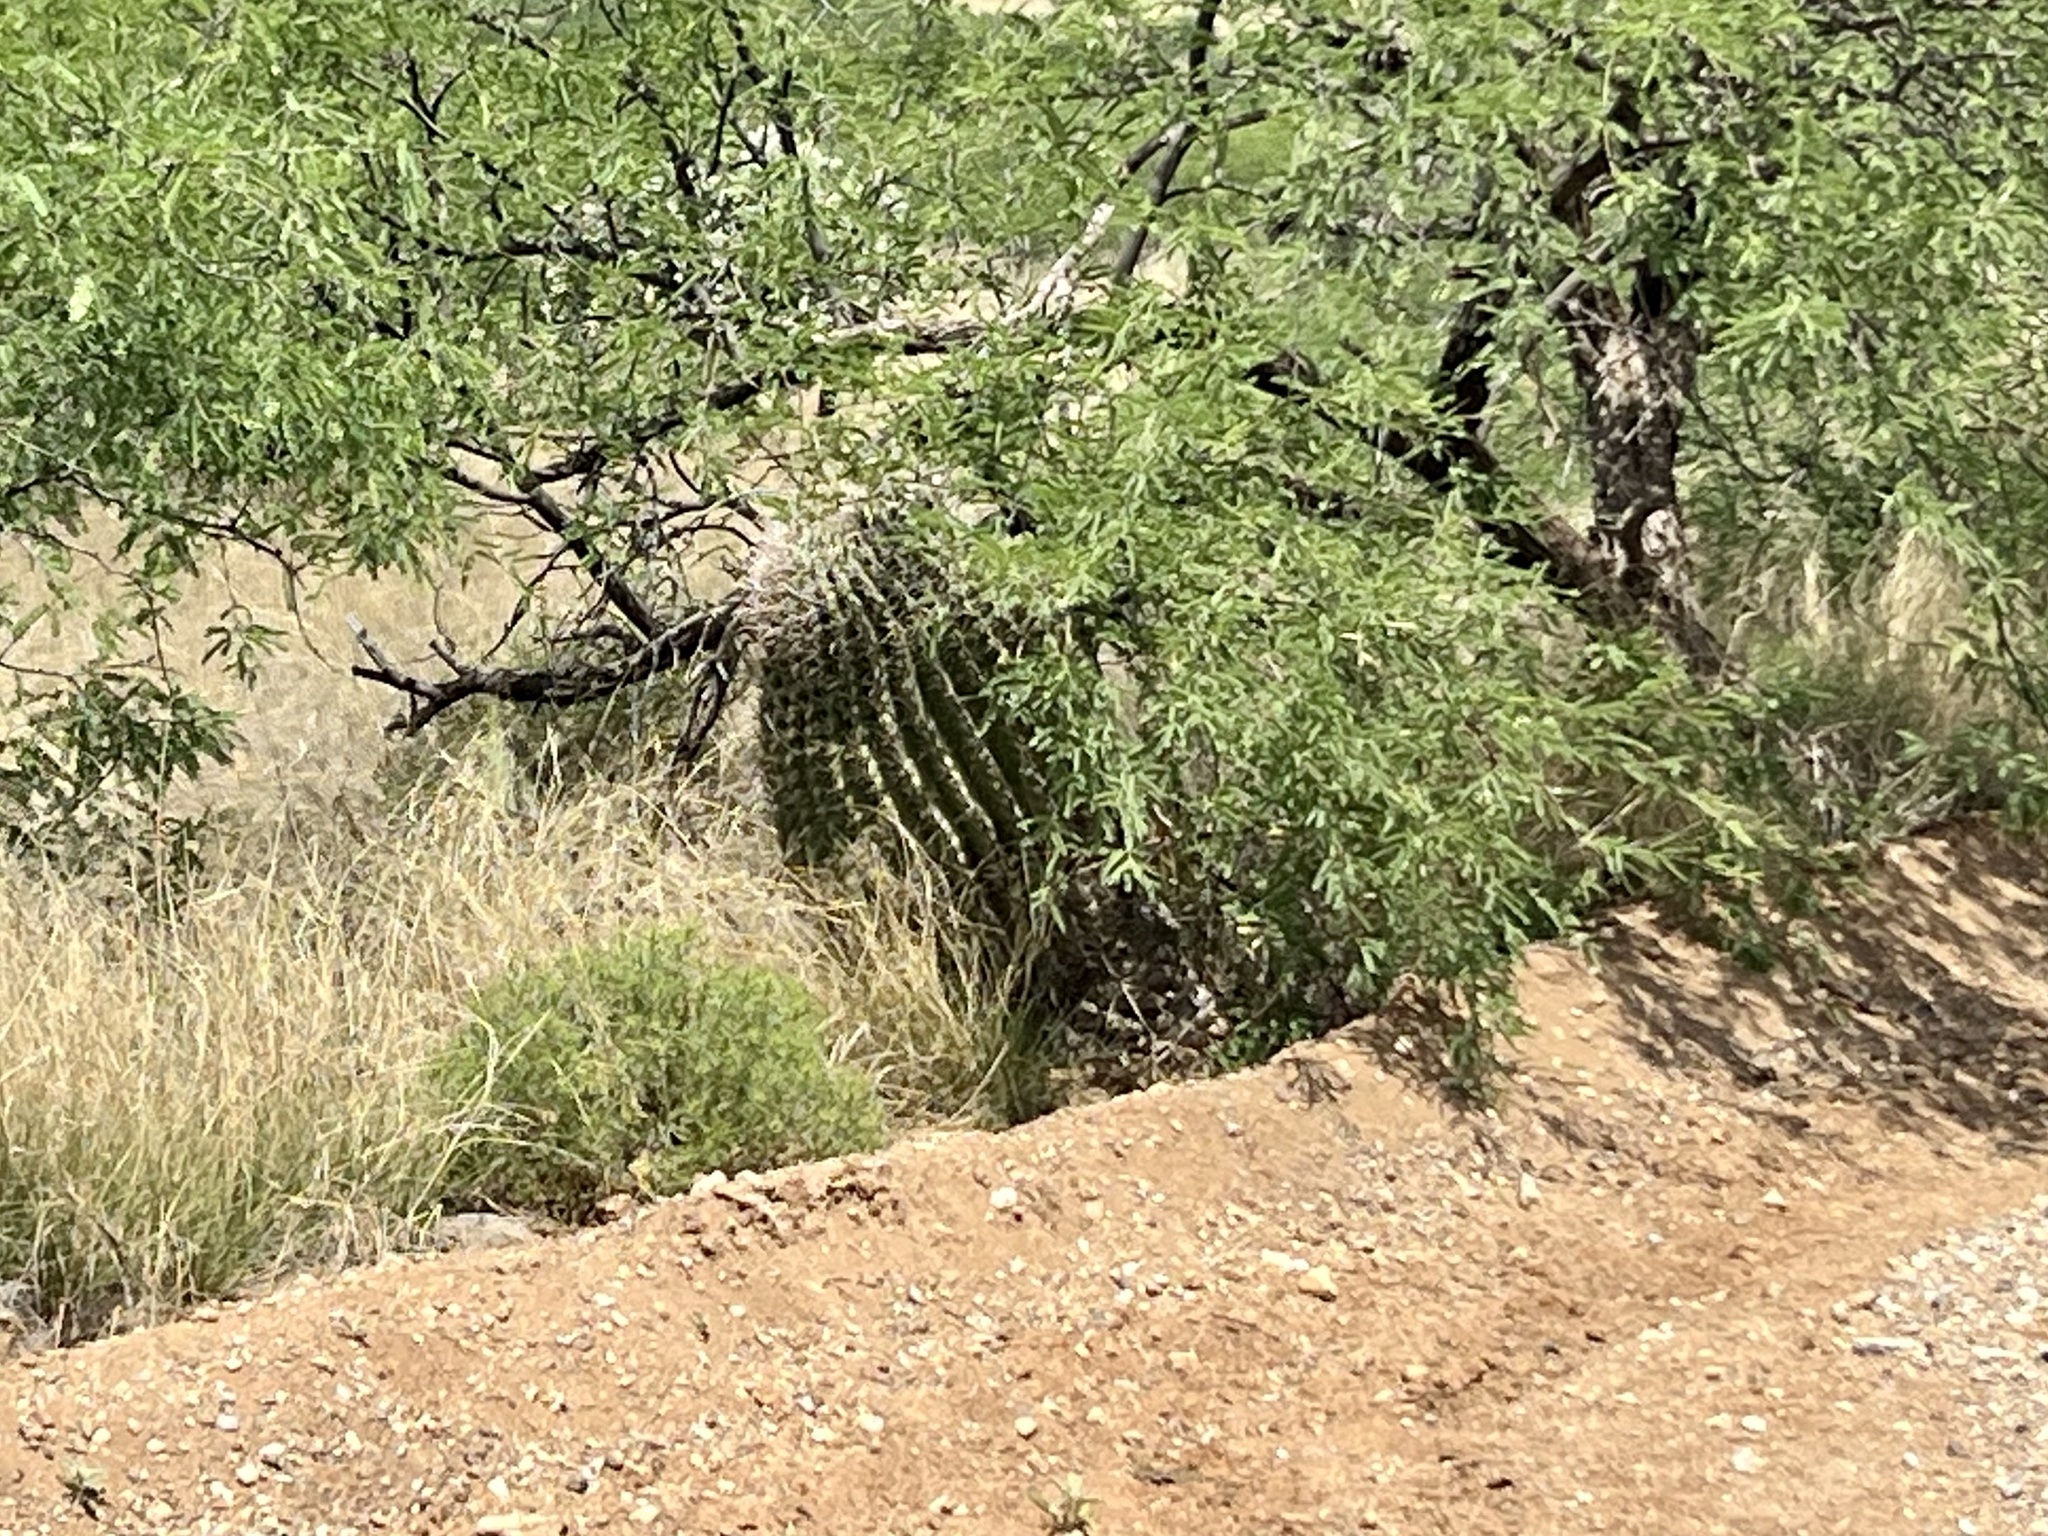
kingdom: Plantae
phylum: Tracheophyta
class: Magnoliopsida
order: Caryophyllales
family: Cactaceae
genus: Ferocactus
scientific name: Ferocactus wislizeni
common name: Candy barrel cactus
